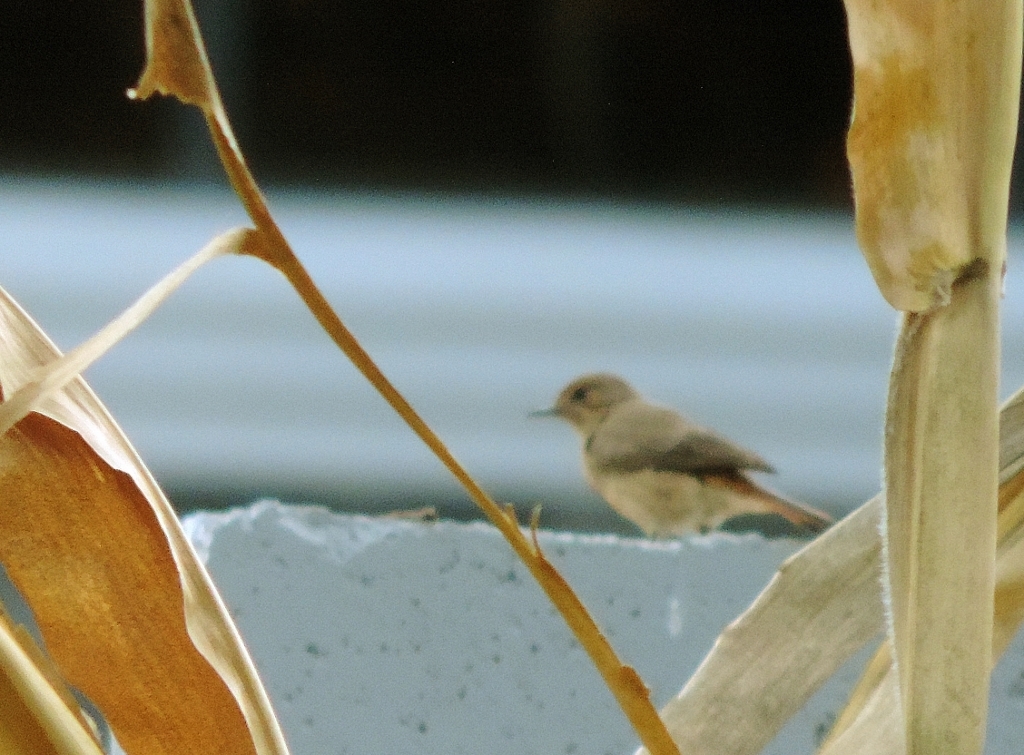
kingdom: Animalia
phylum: Chordata
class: Aves
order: Passeriformes
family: Muscicapidae
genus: Oenanthe
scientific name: Oenanthe familiaris
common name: Familiar chat
